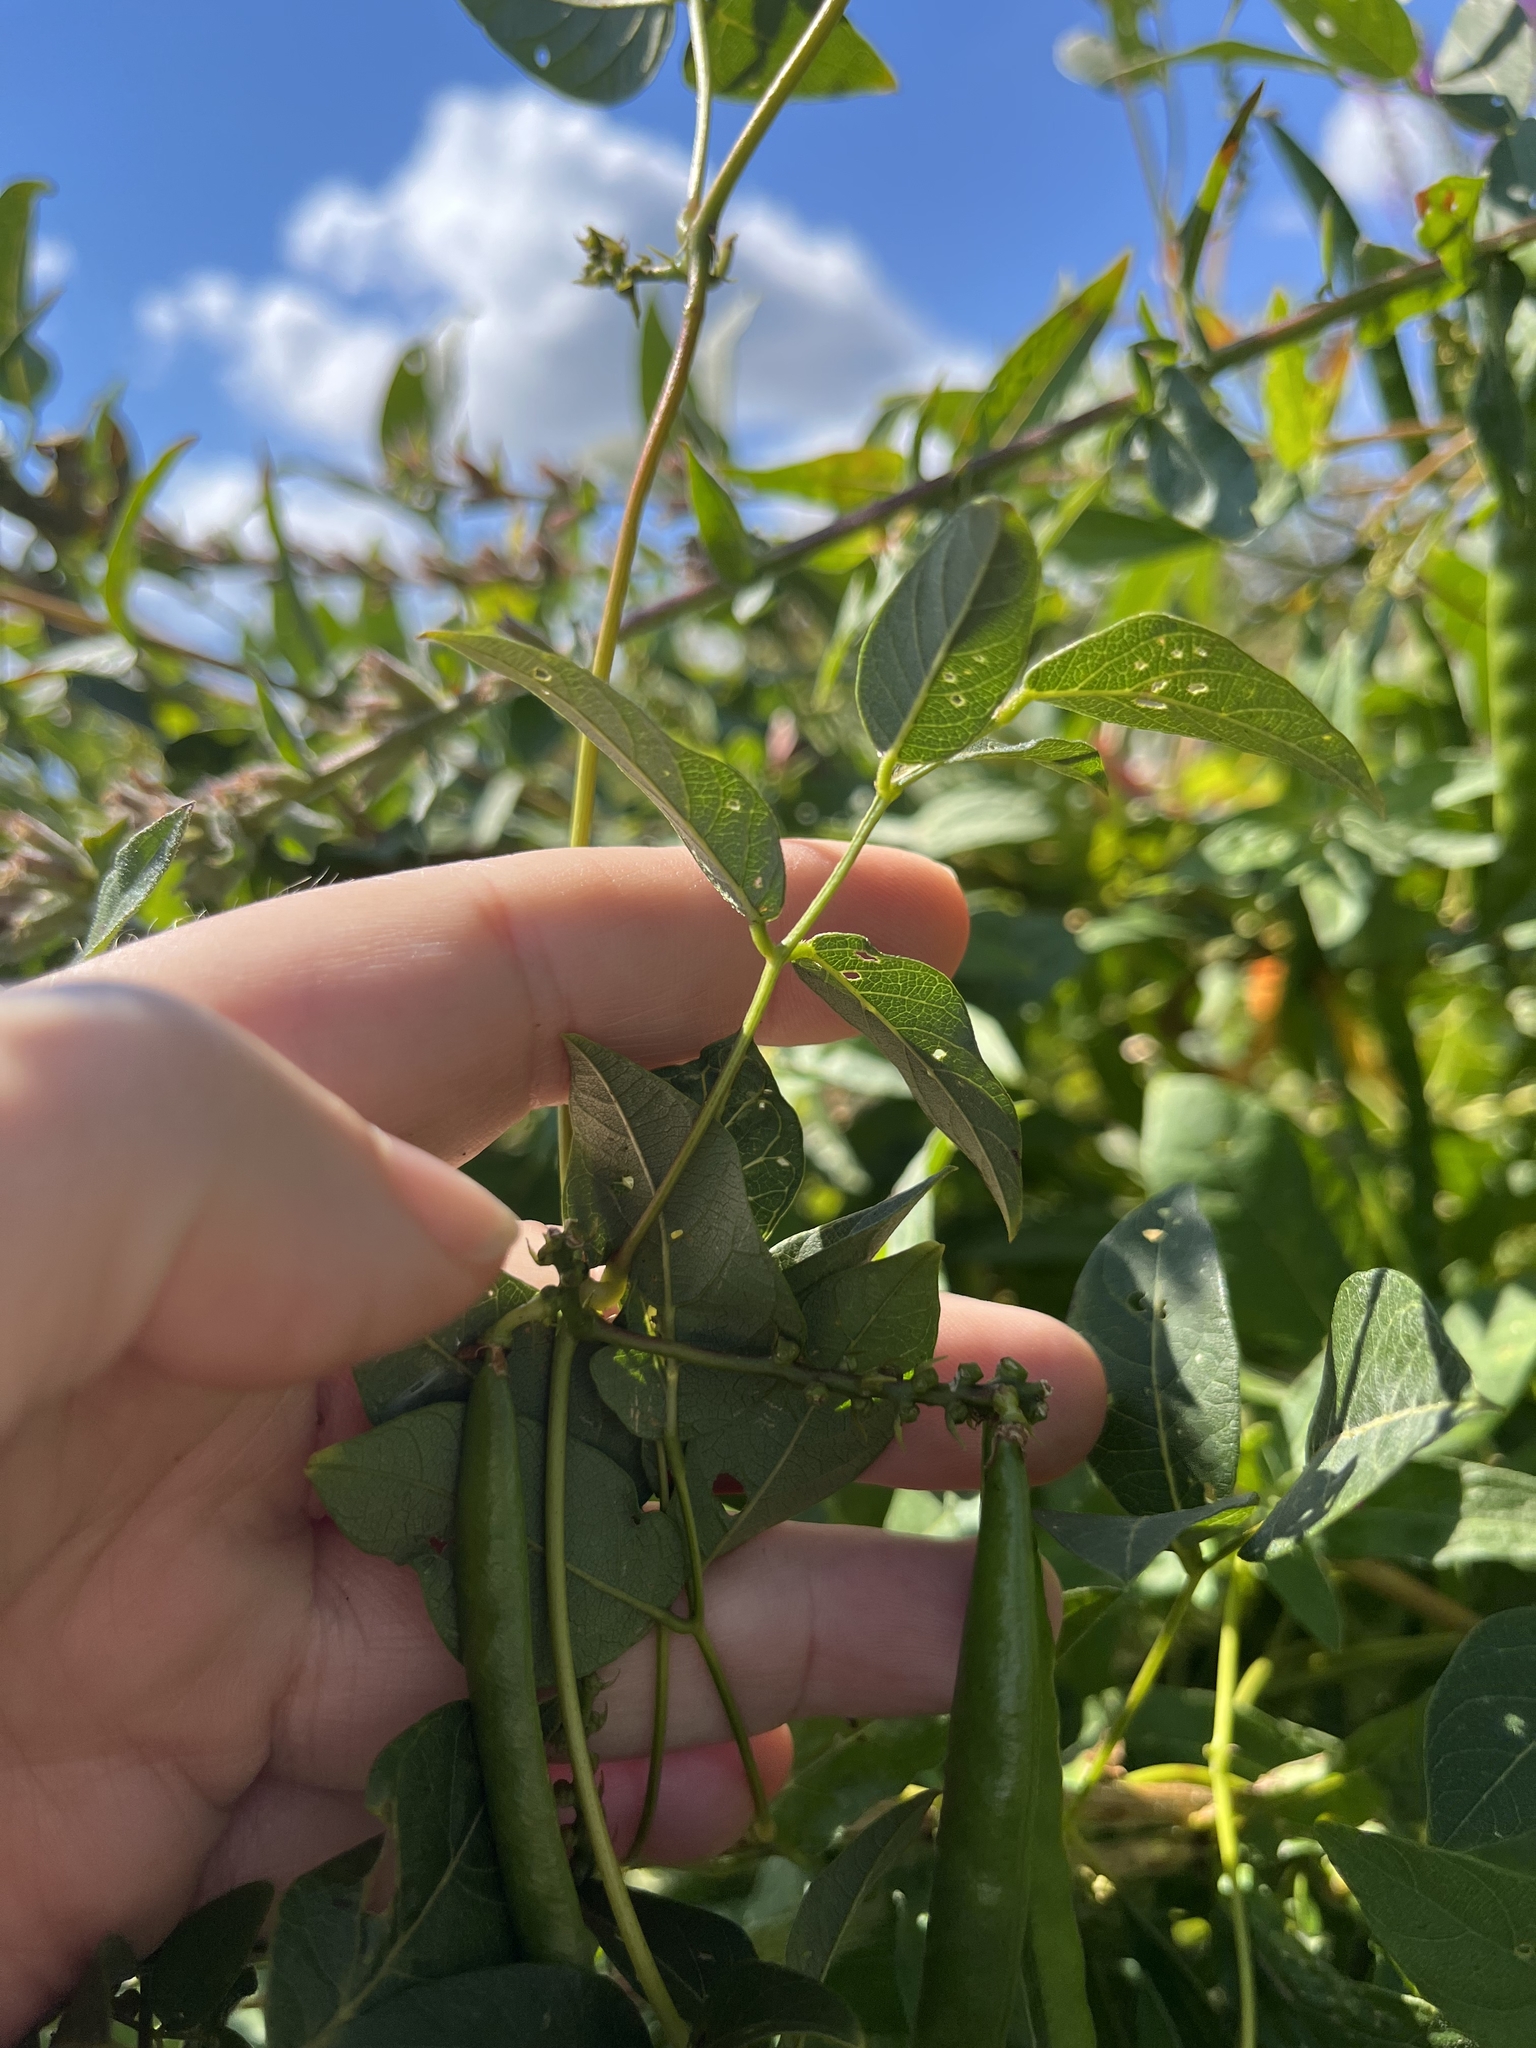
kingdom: Plantae
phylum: Tracheophyta
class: Magnoliopsida
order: Fabales
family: Fabaceae
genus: Apios
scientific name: Apios americana
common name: American potato-bean
